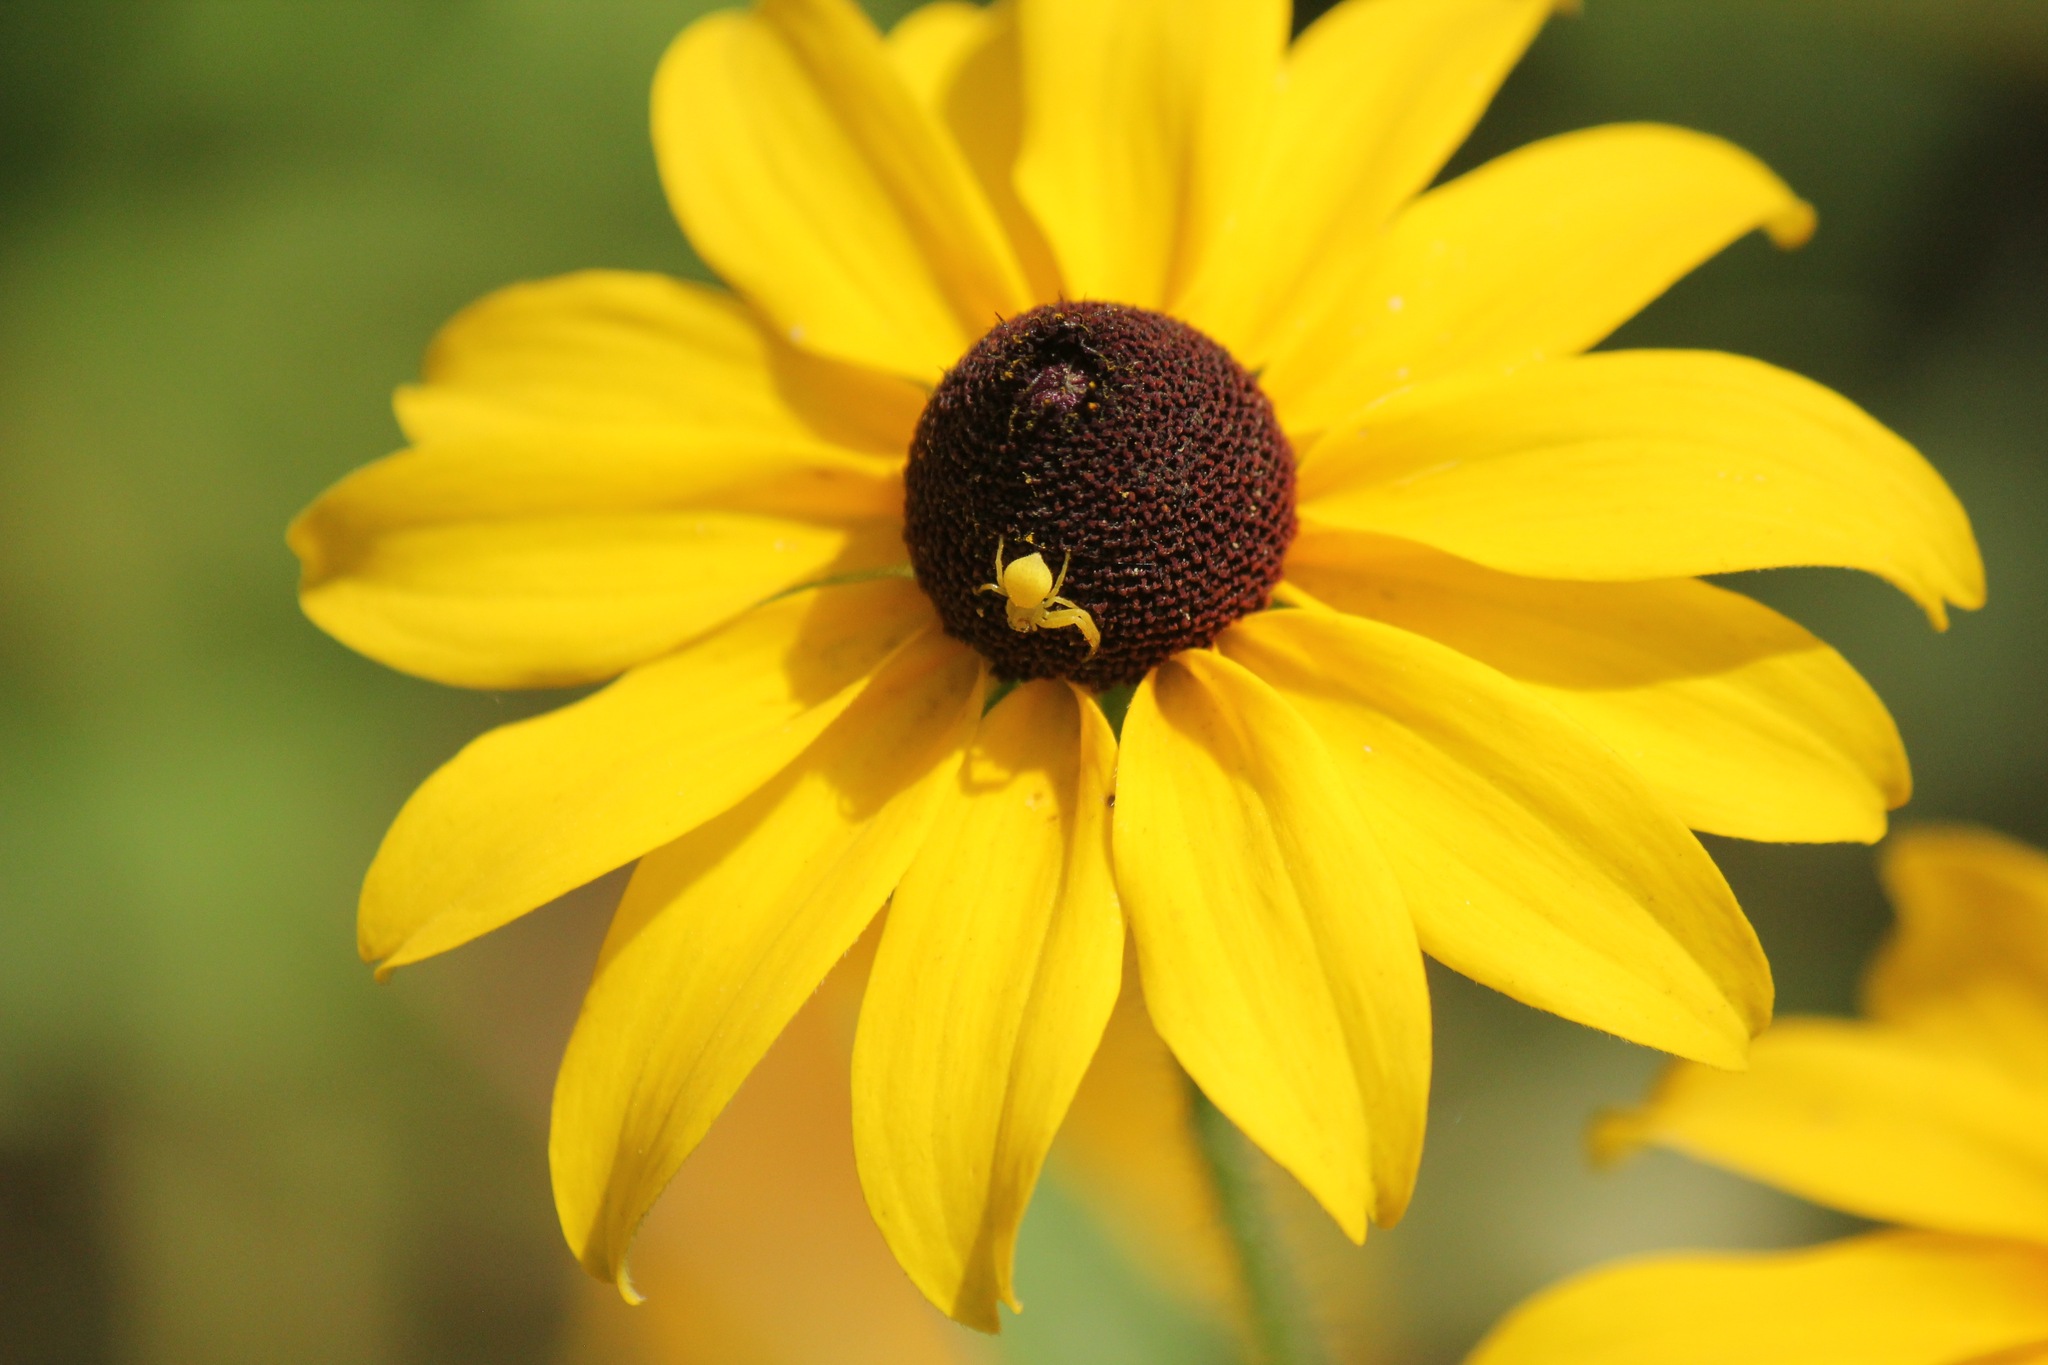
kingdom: Animalia
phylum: Arthropoda
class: Arachnida
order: Araneae
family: Thomisidae
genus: Misumena
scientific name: Misumena vatia
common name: Goldenrod crab spider
